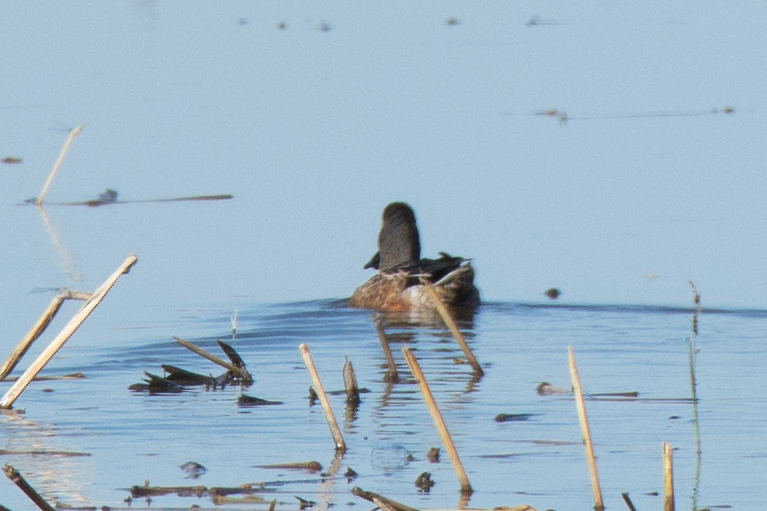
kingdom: Animalia
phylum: Chordata
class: Aves
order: Anseriformes
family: Anatidae
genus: Spatula
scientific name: Spatula clypeata
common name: Northern shoveler
